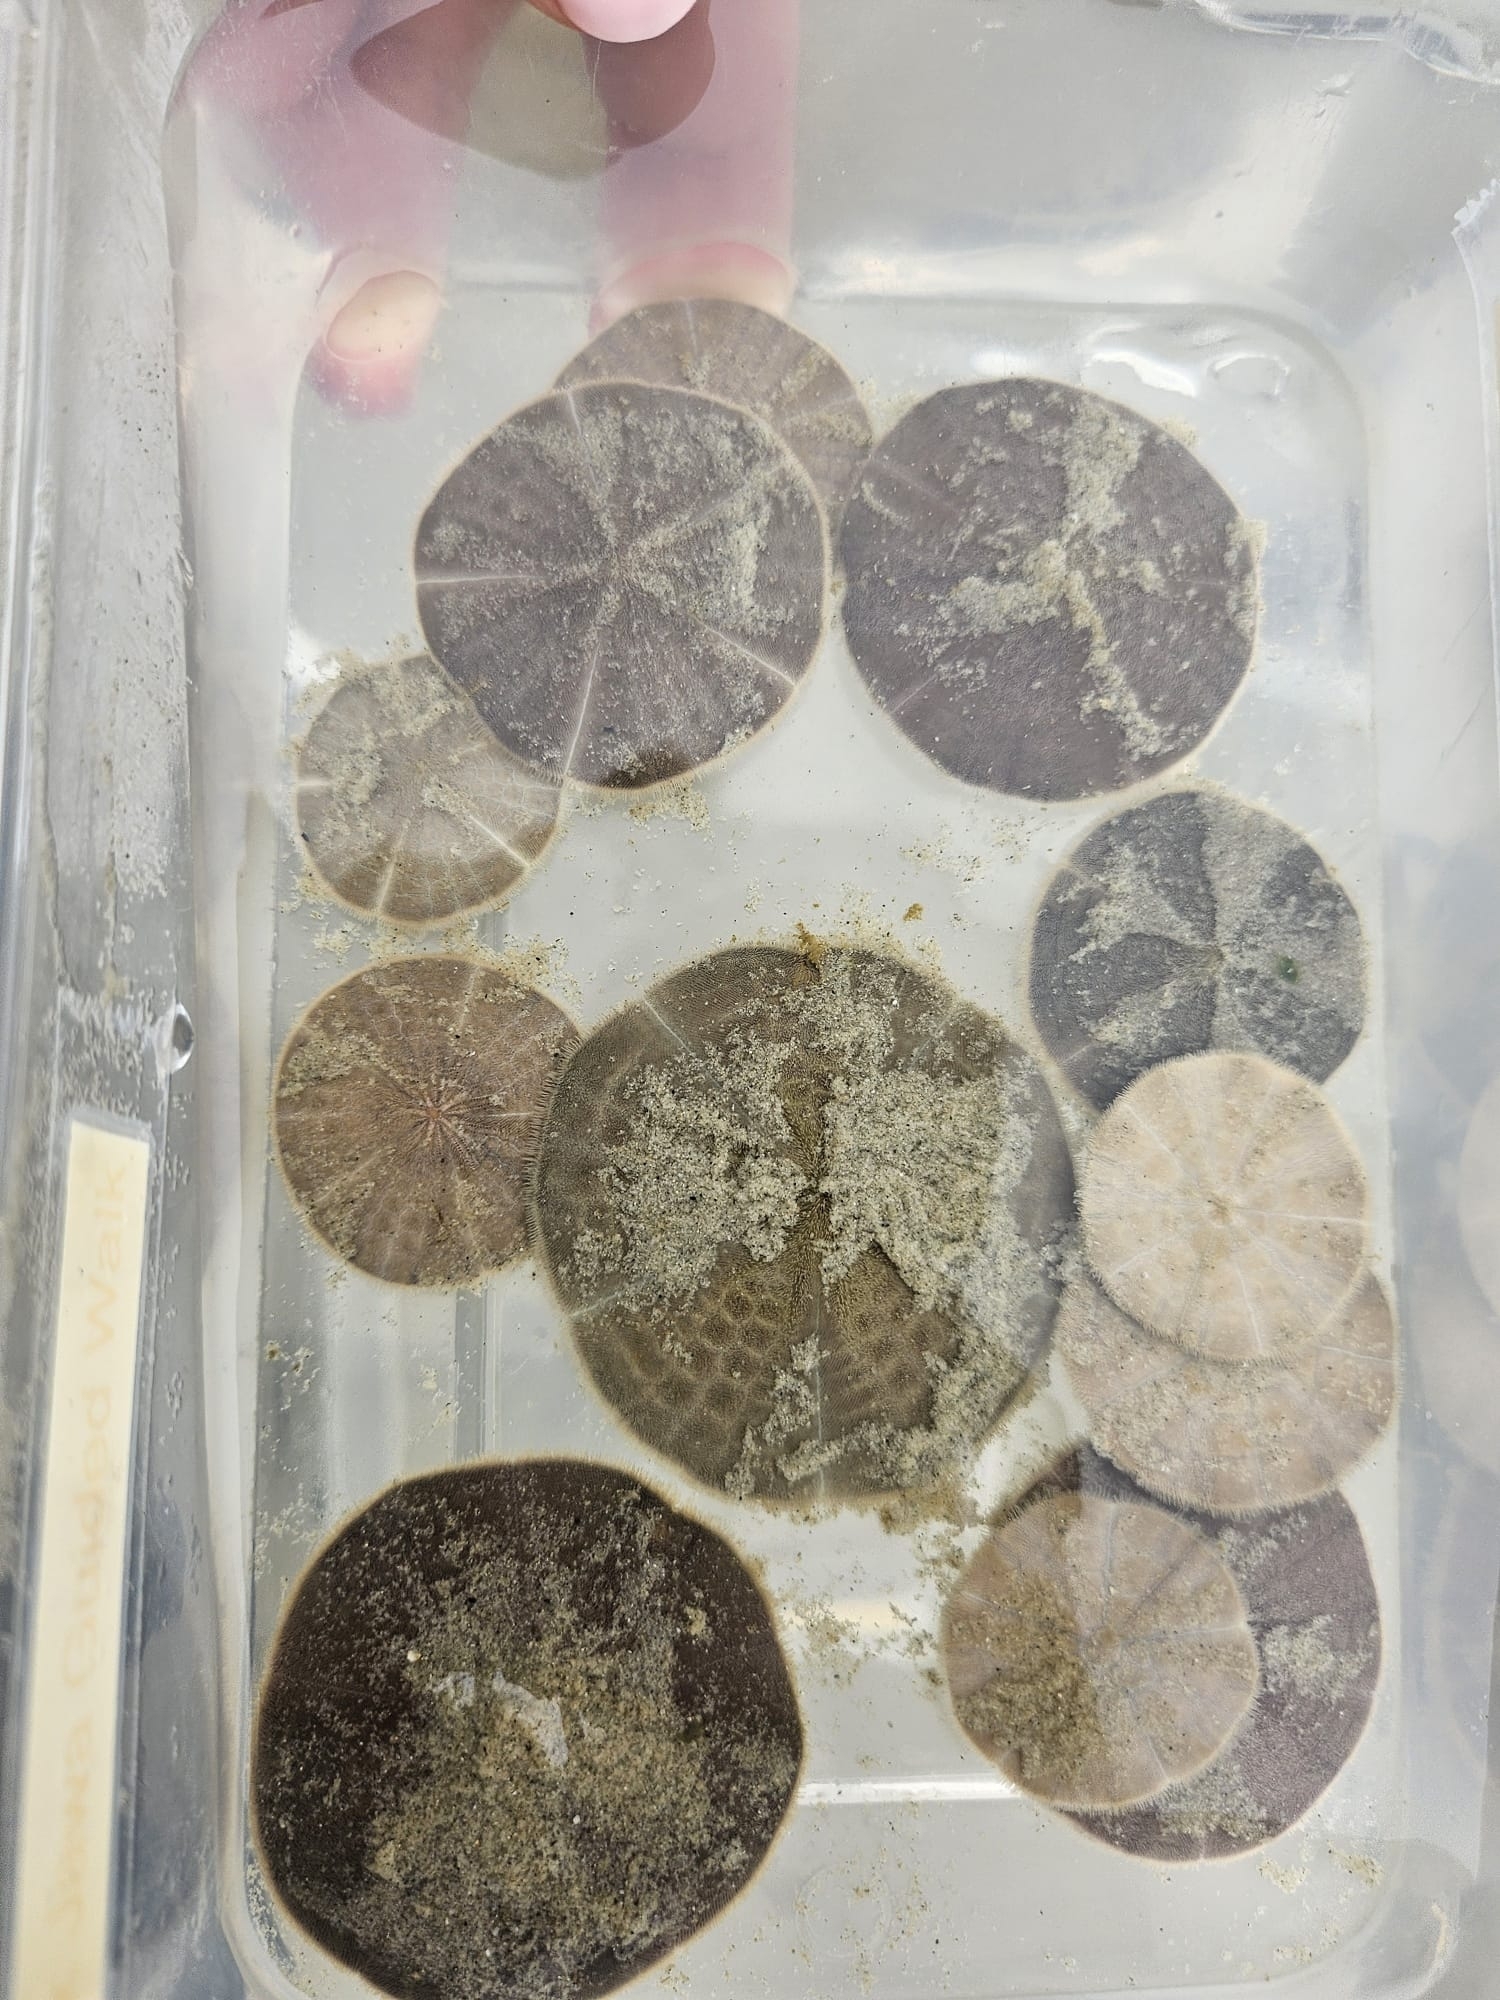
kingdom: Animalia
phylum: Echinodermata
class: Echinoidea
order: Clypeasteroida
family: Clypeasteridae
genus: Arachnoides
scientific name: Arachnoides placenta
